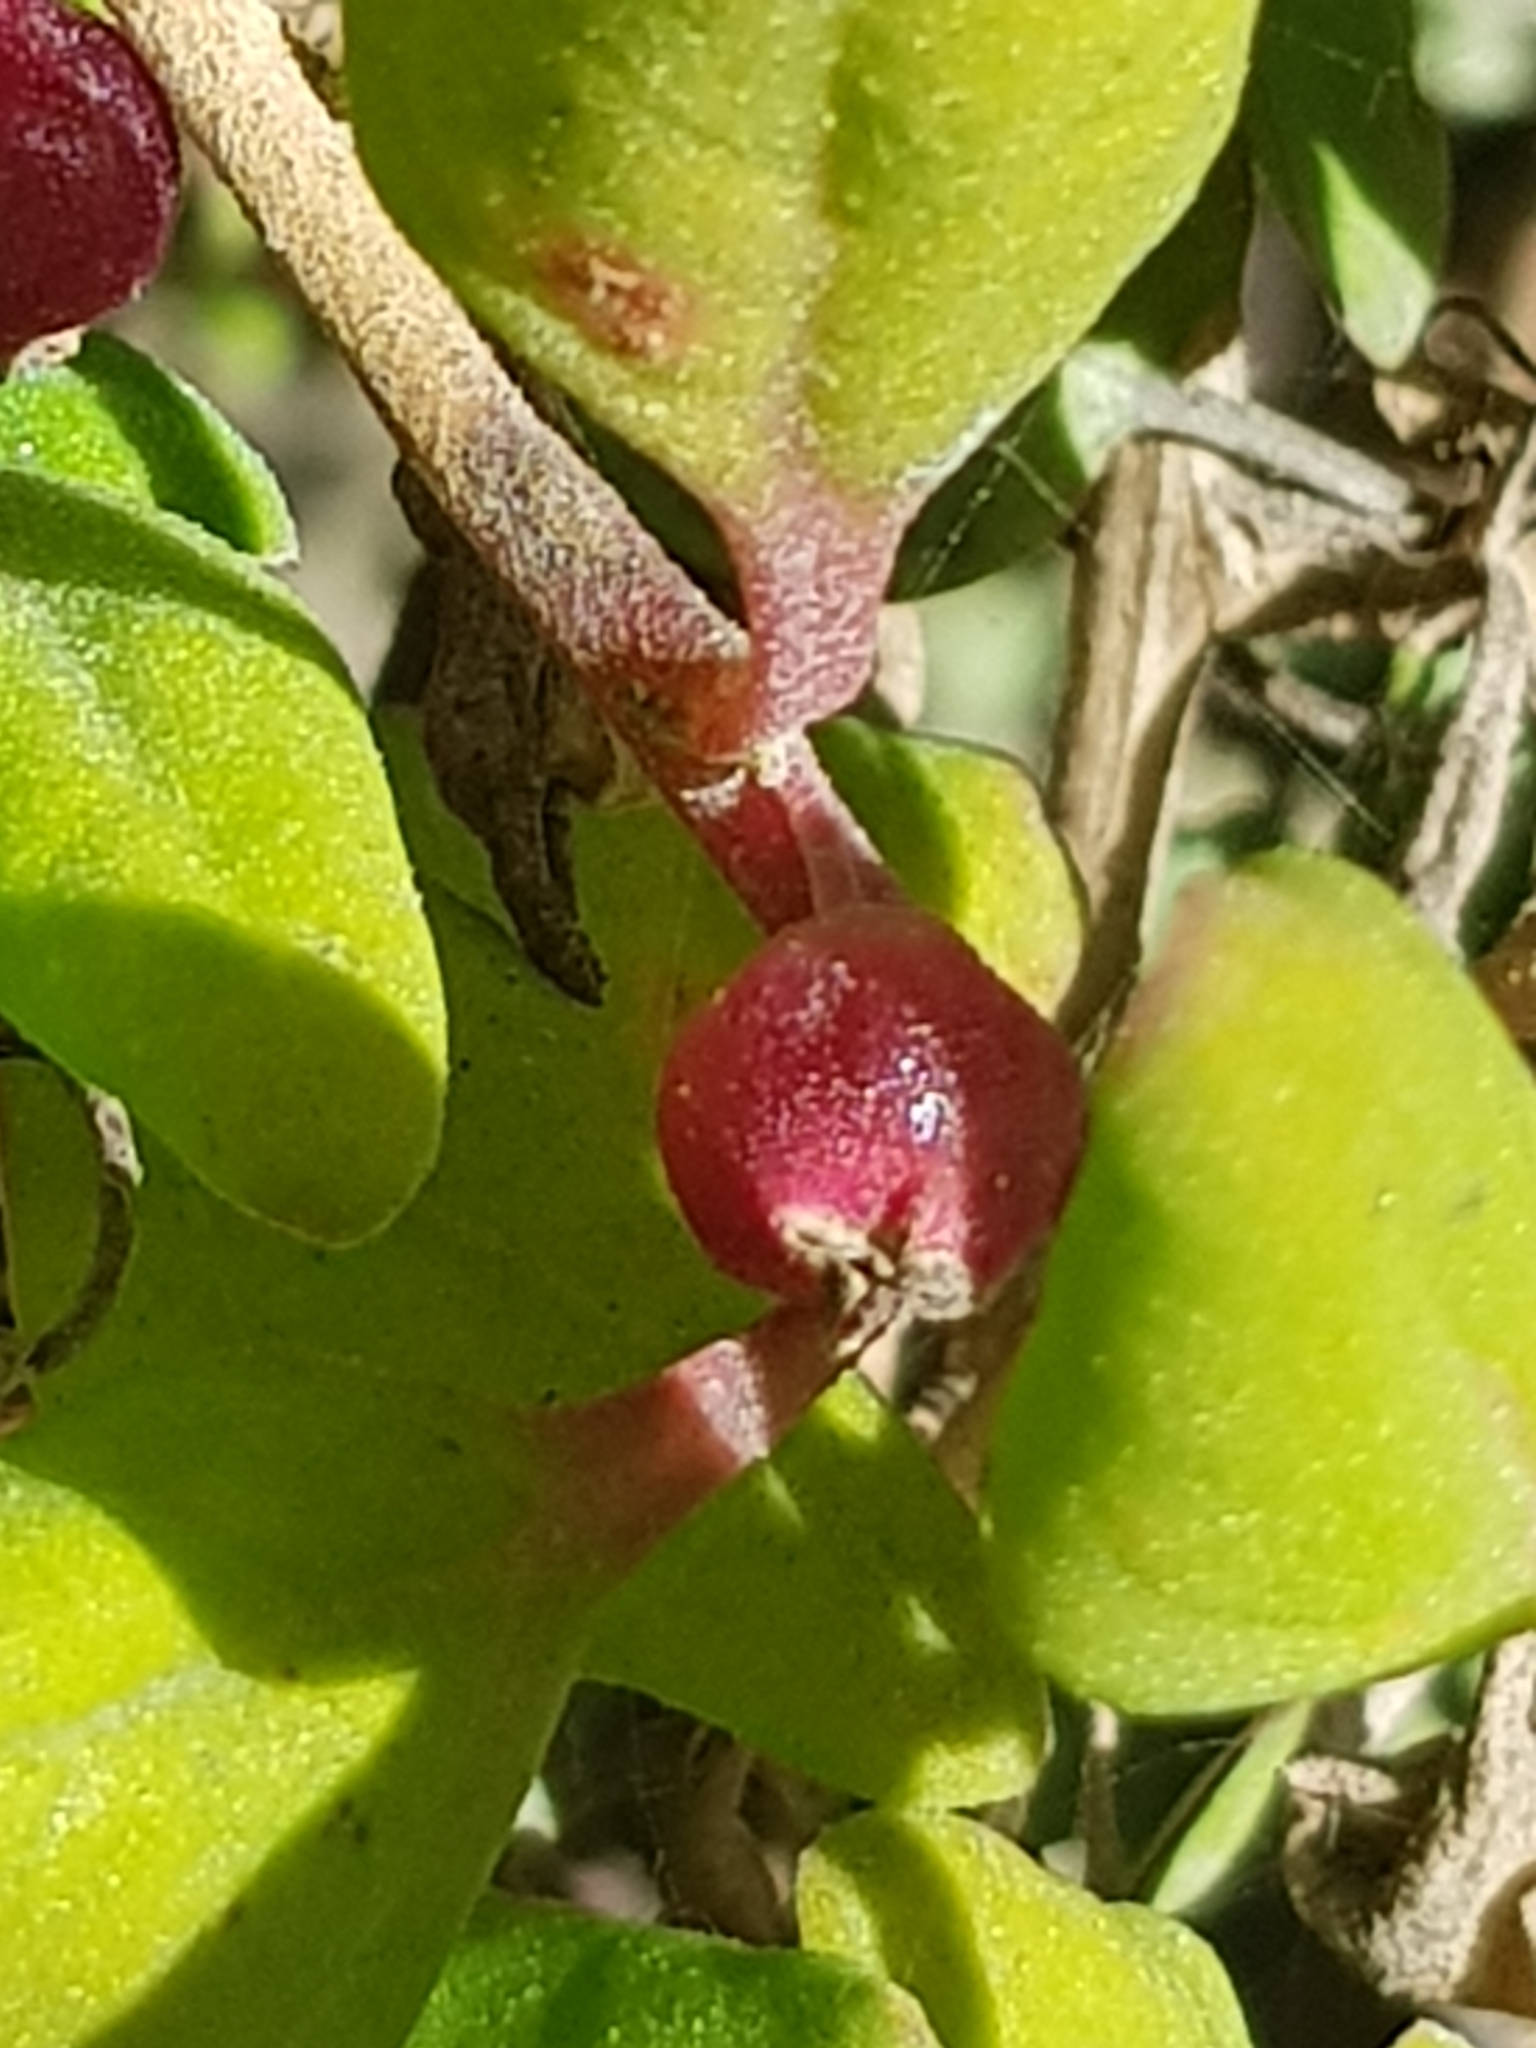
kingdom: Plantae
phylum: Tracheophyta
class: Magnoliopsida
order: Caryophyllales
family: Aizoaceae
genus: Tetragonia
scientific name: Tetragonia implexicoma
